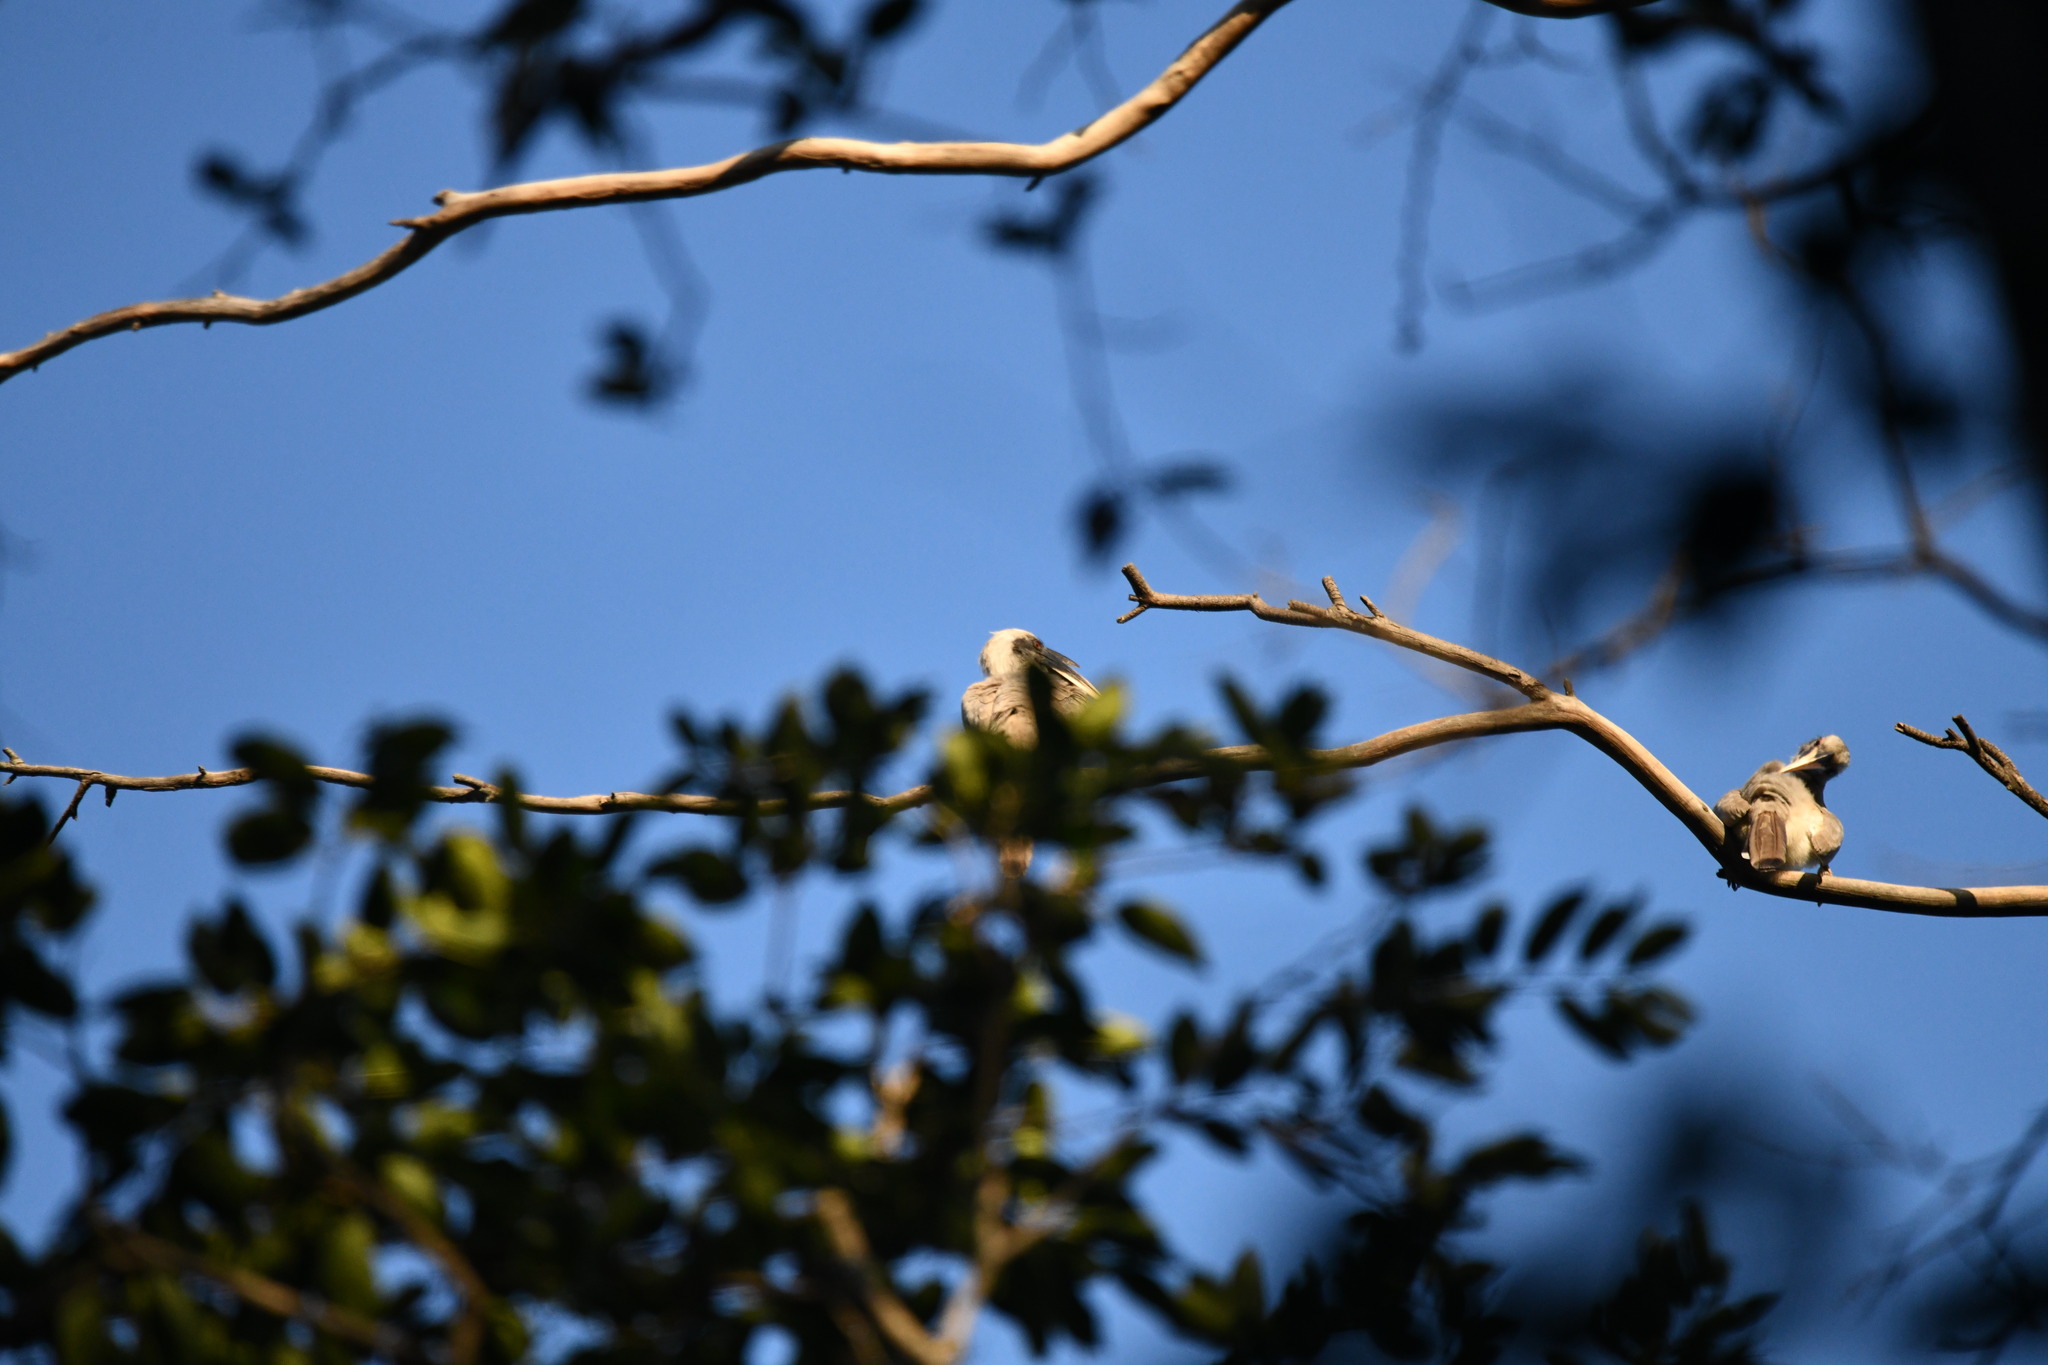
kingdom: Animalia
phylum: Chordata
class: Aves
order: Bucerotiformes
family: Bucerotidae
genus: Ocyceros
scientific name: Ocyceros birostris
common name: Indian grey hornbill
